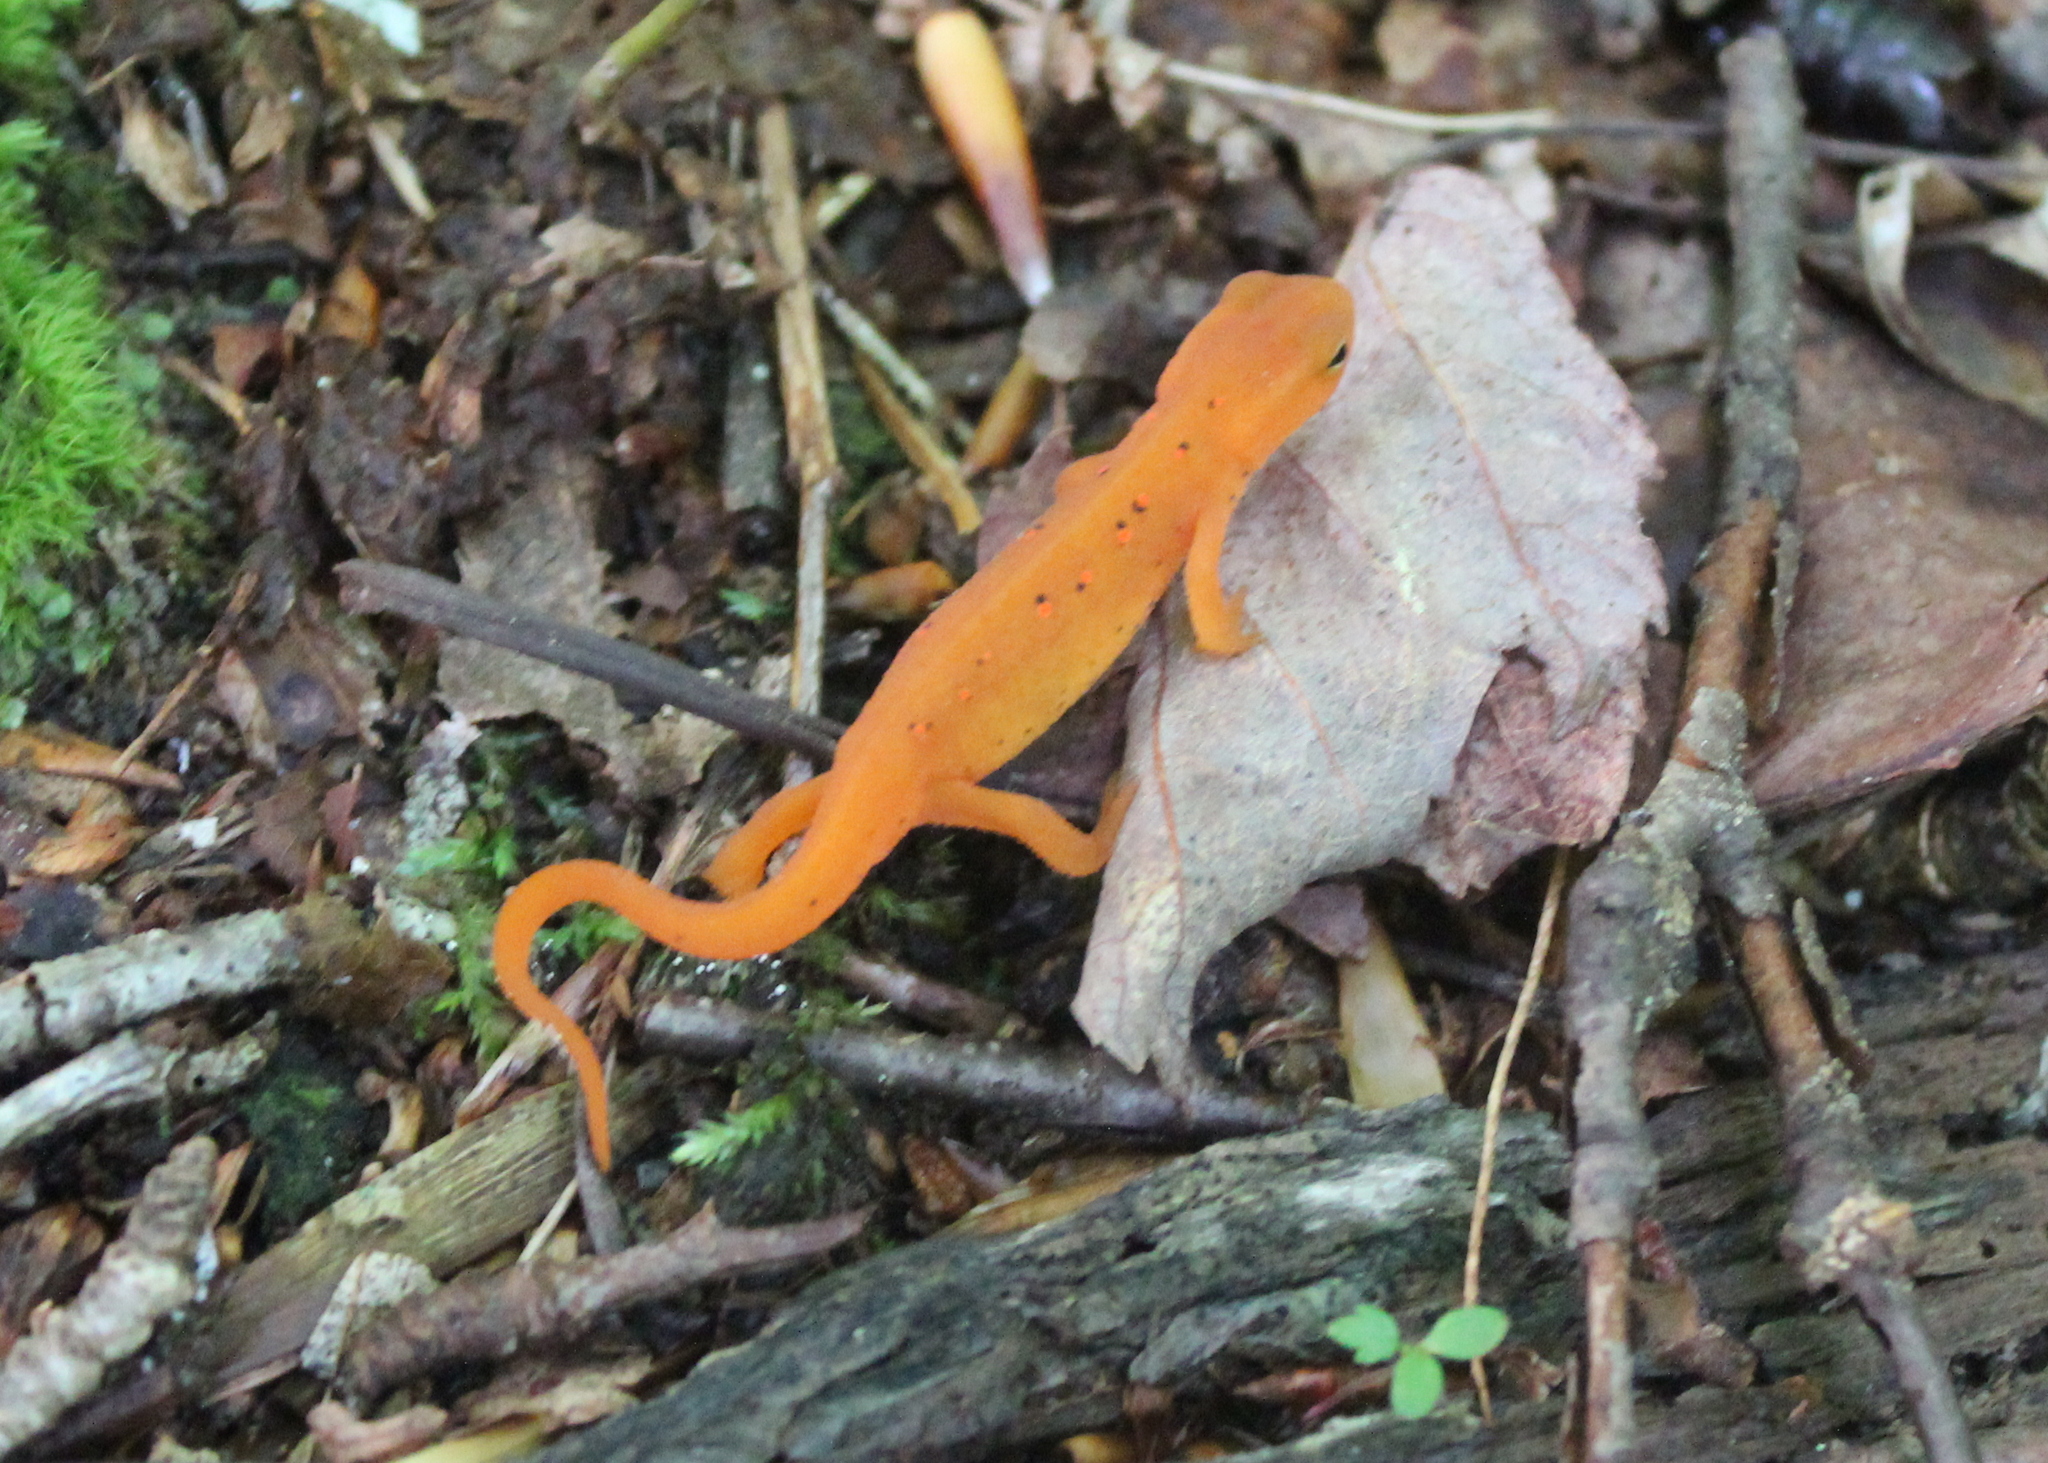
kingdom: Animalia
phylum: Chordata
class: Amphibia
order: Caudata
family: Salamandridae
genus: Notophthalmus
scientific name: Notophthalmus viridescens
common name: Eastern newt
